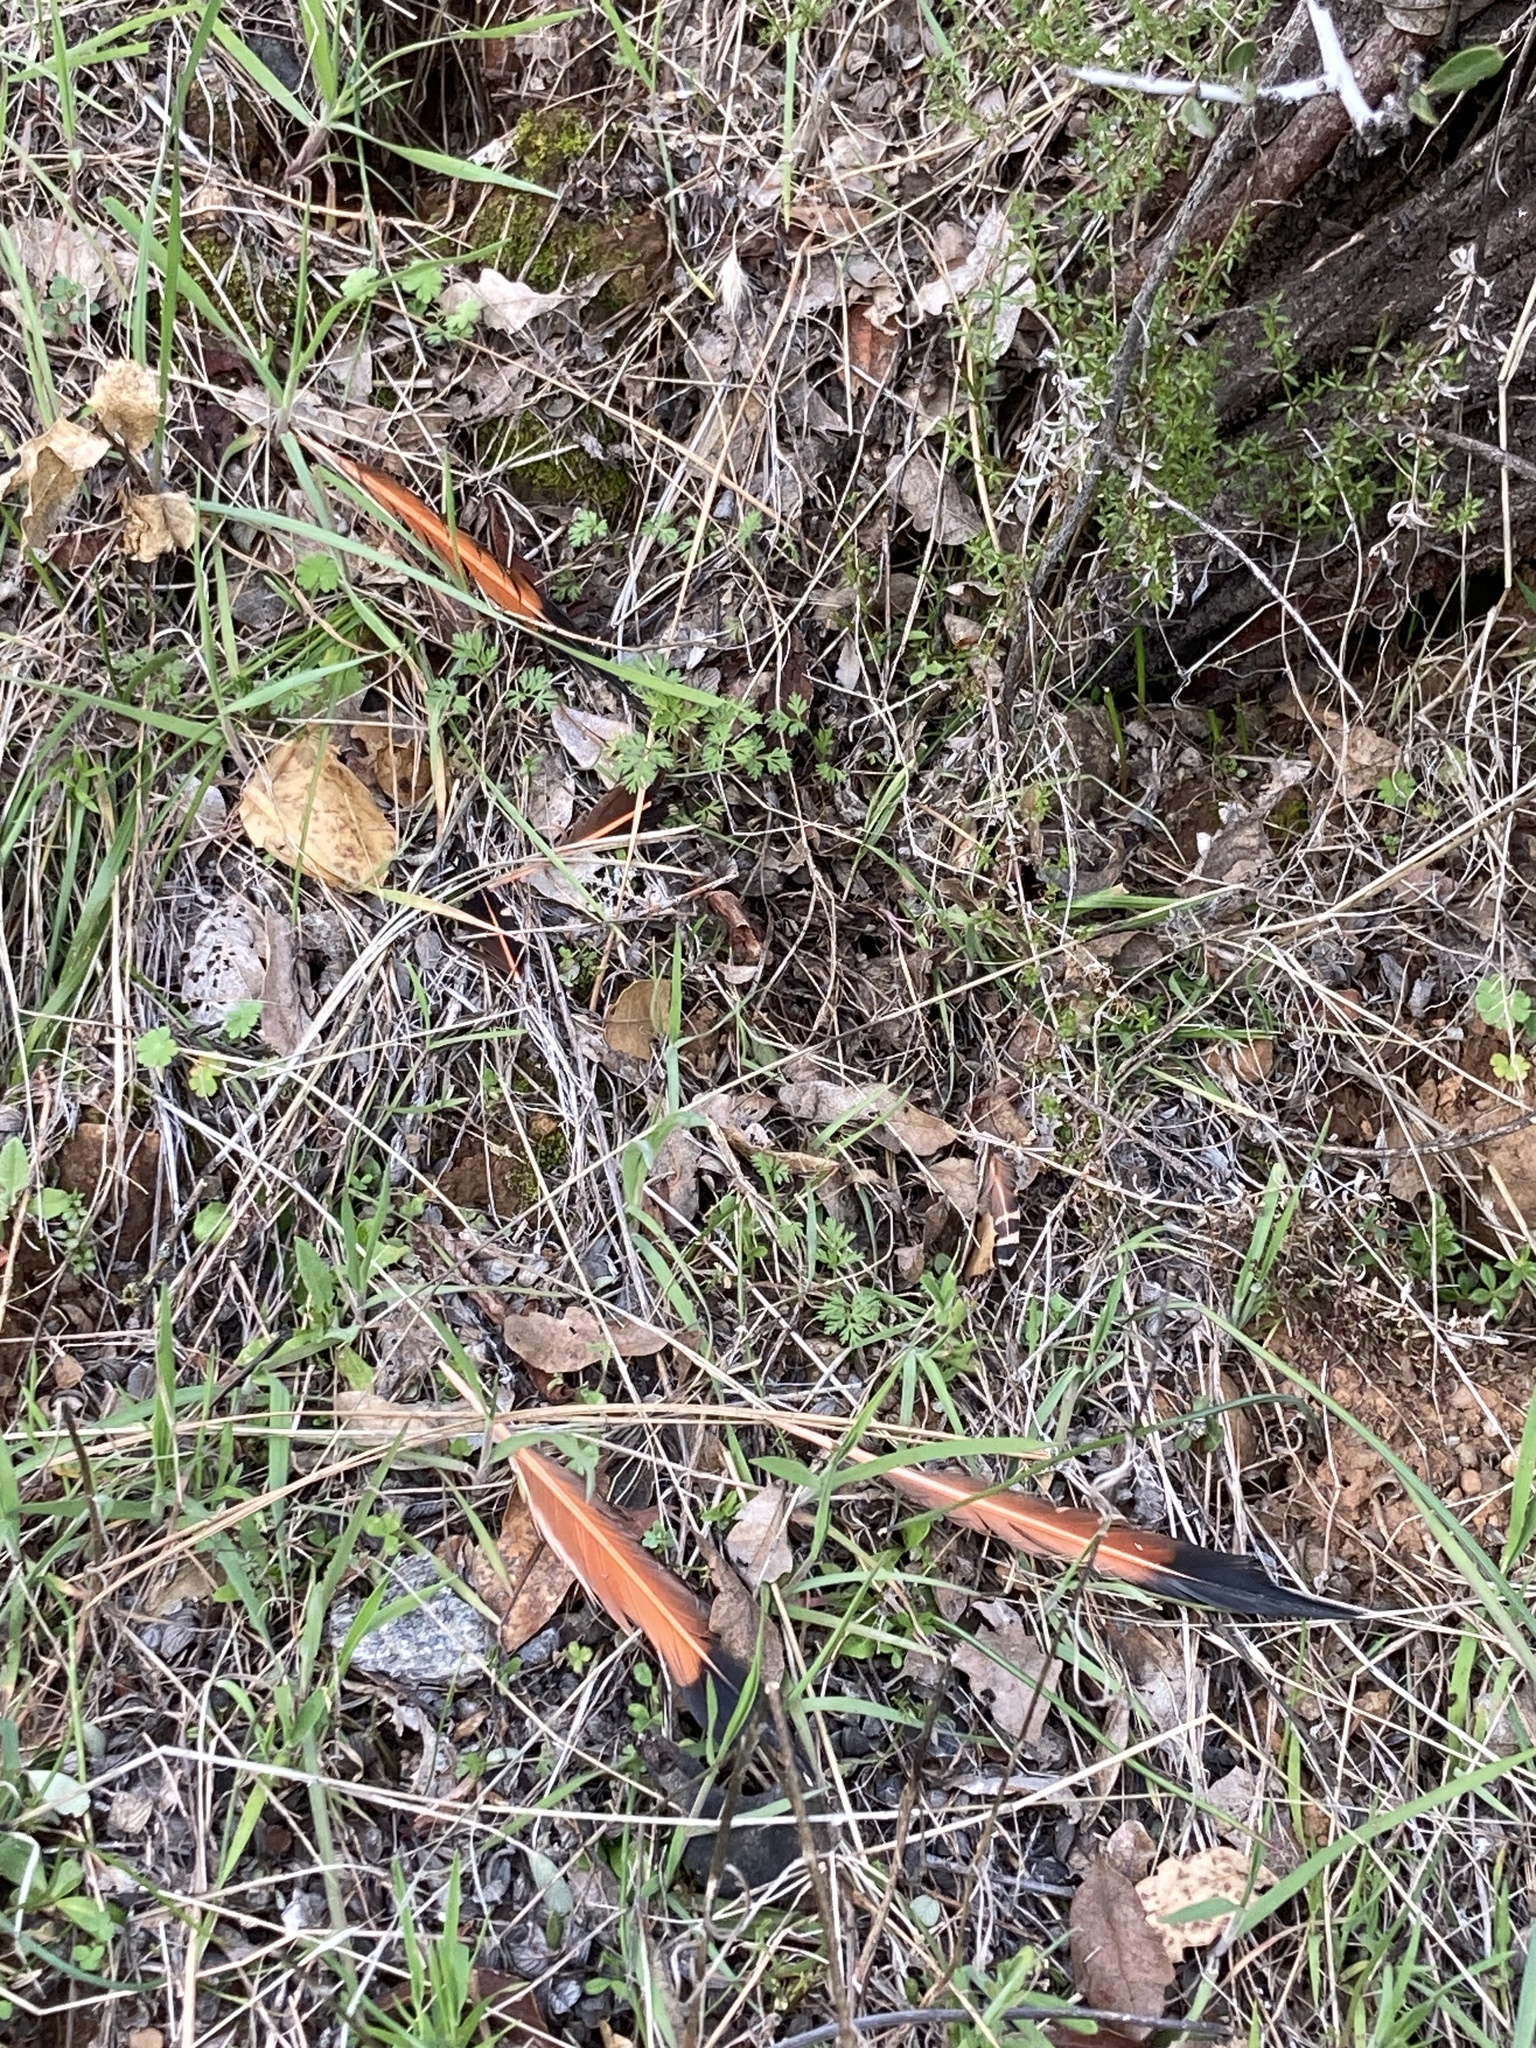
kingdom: Animalia
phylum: Chordata
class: Aves
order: Piciformes
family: Picidae
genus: Colaptes
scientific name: Colaptes auratus
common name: Northern flicker
